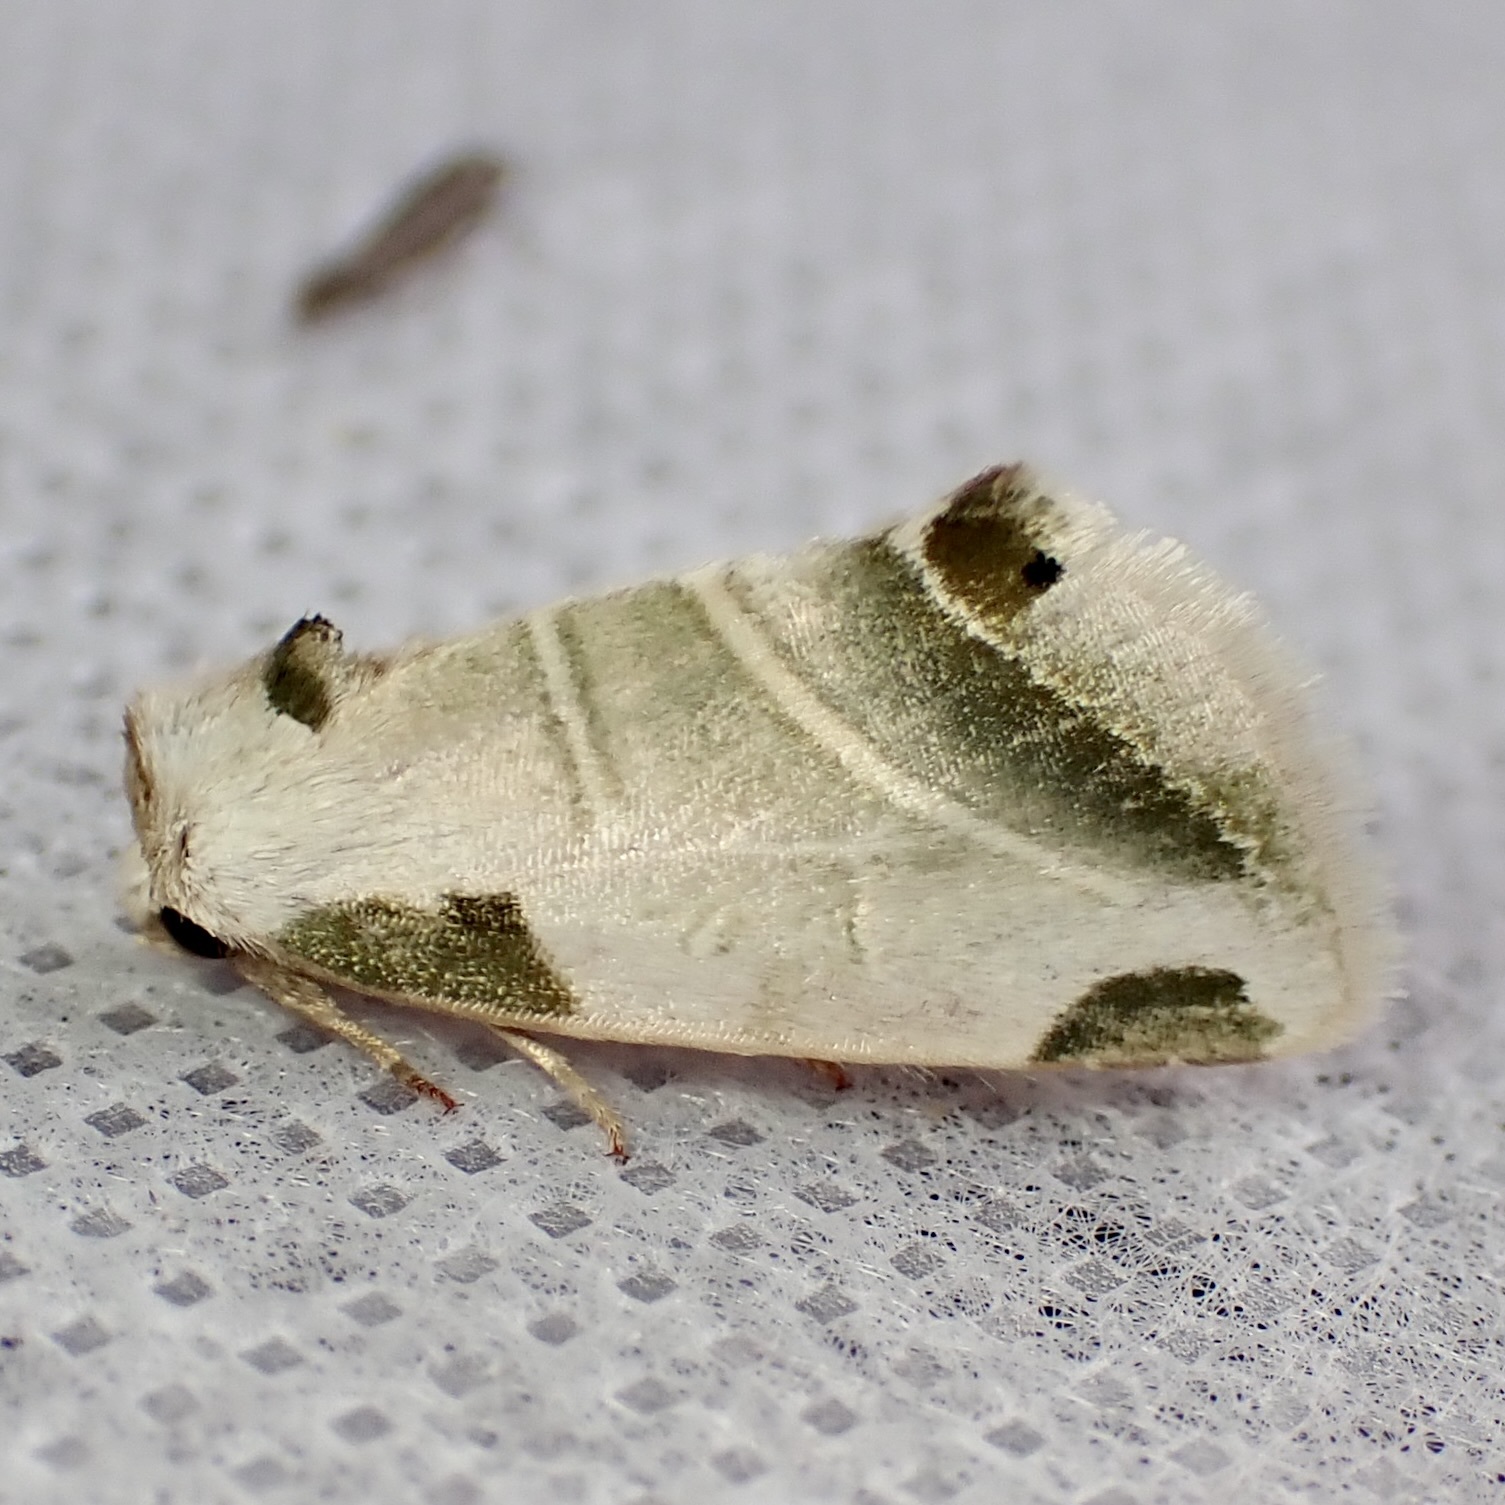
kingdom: Animalia
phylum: Arthropoda
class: Insecta
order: Lepidoptera
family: Noctuidae
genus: Heminocloa
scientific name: Heminocloa mirabilis
